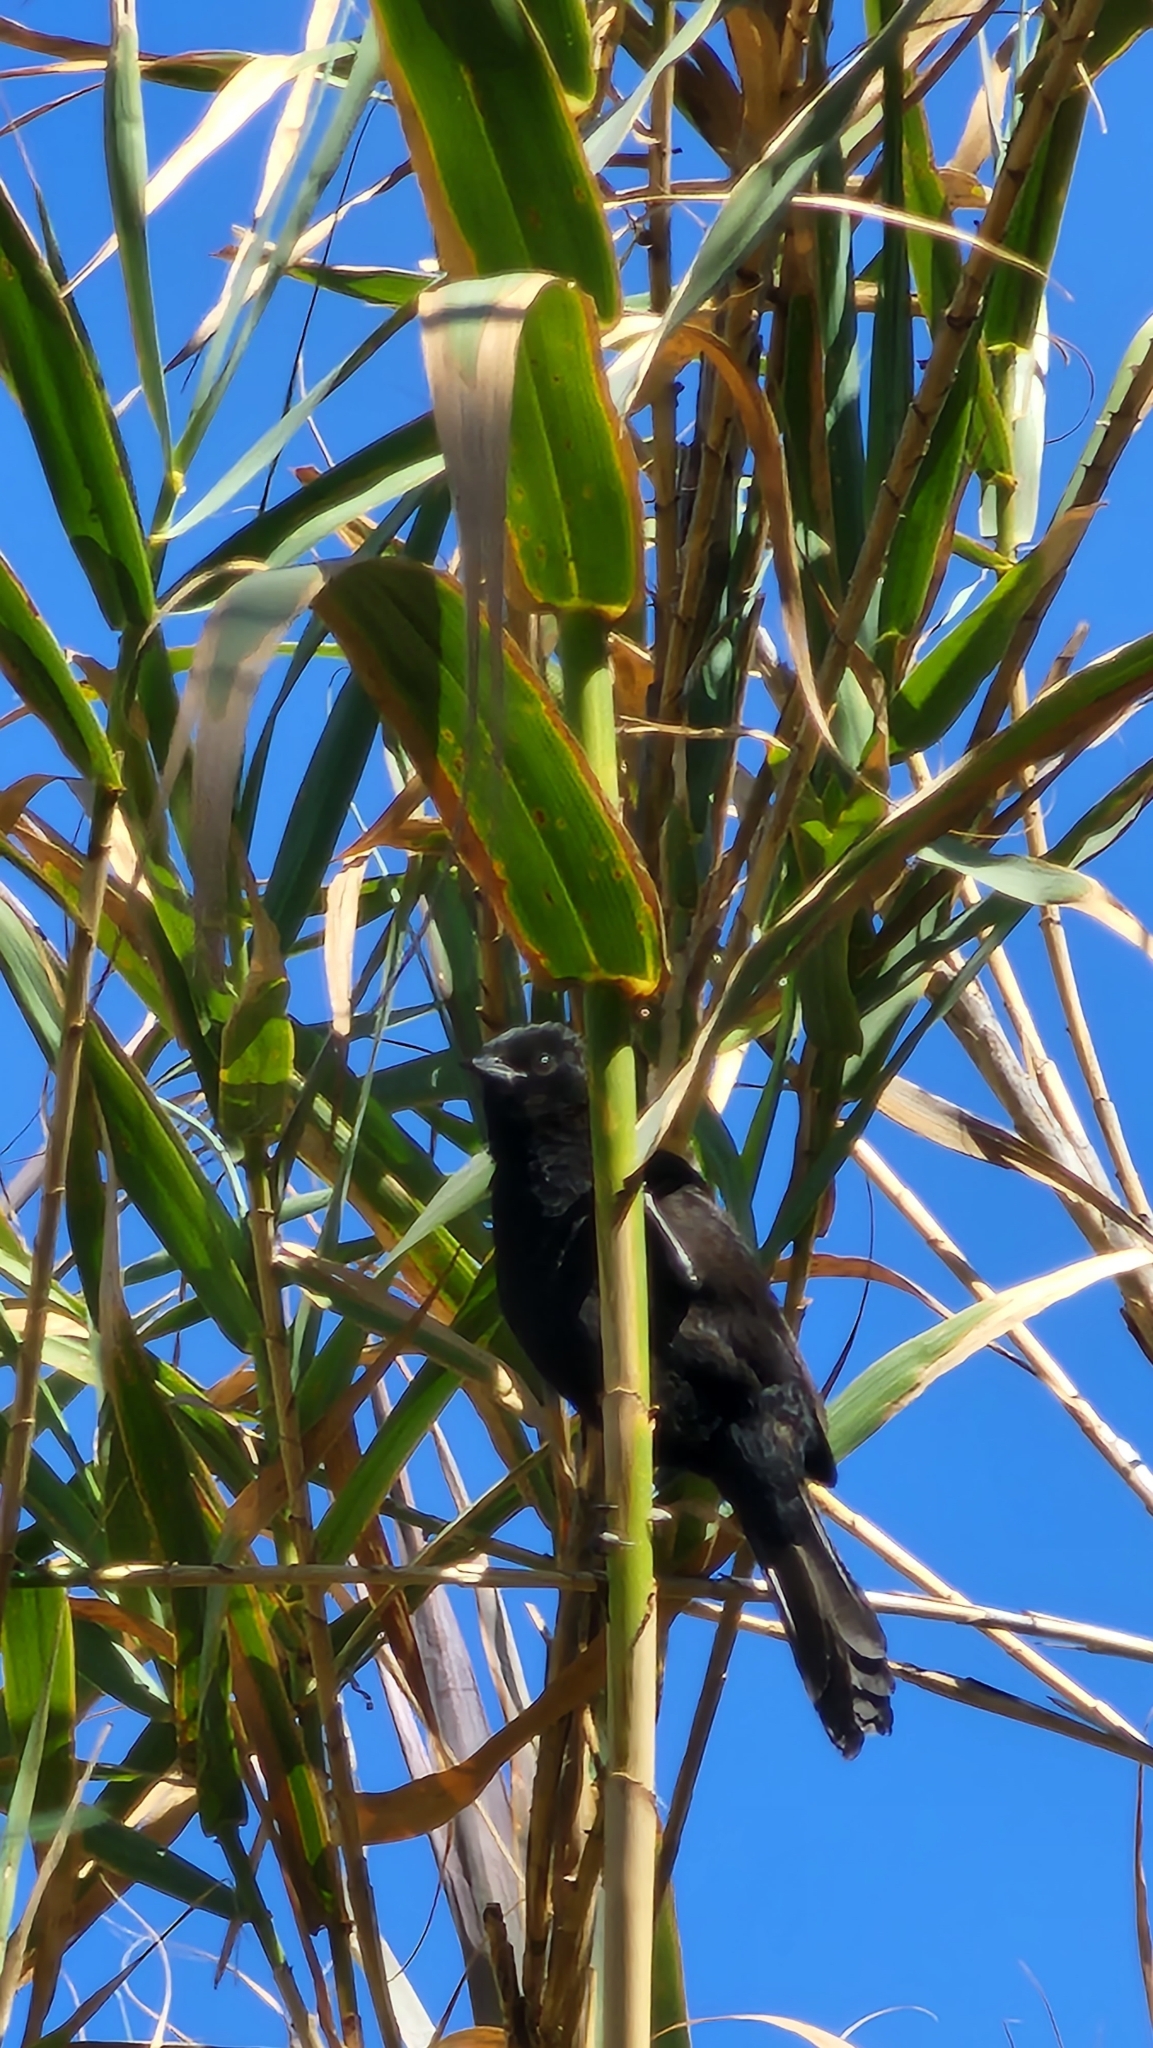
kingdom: Animalia
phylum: Chordata
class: Aves
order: Passeriformes
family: Icteridae
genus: Icterus
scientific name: Icterus cayanensis
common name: Epaulet oriole
